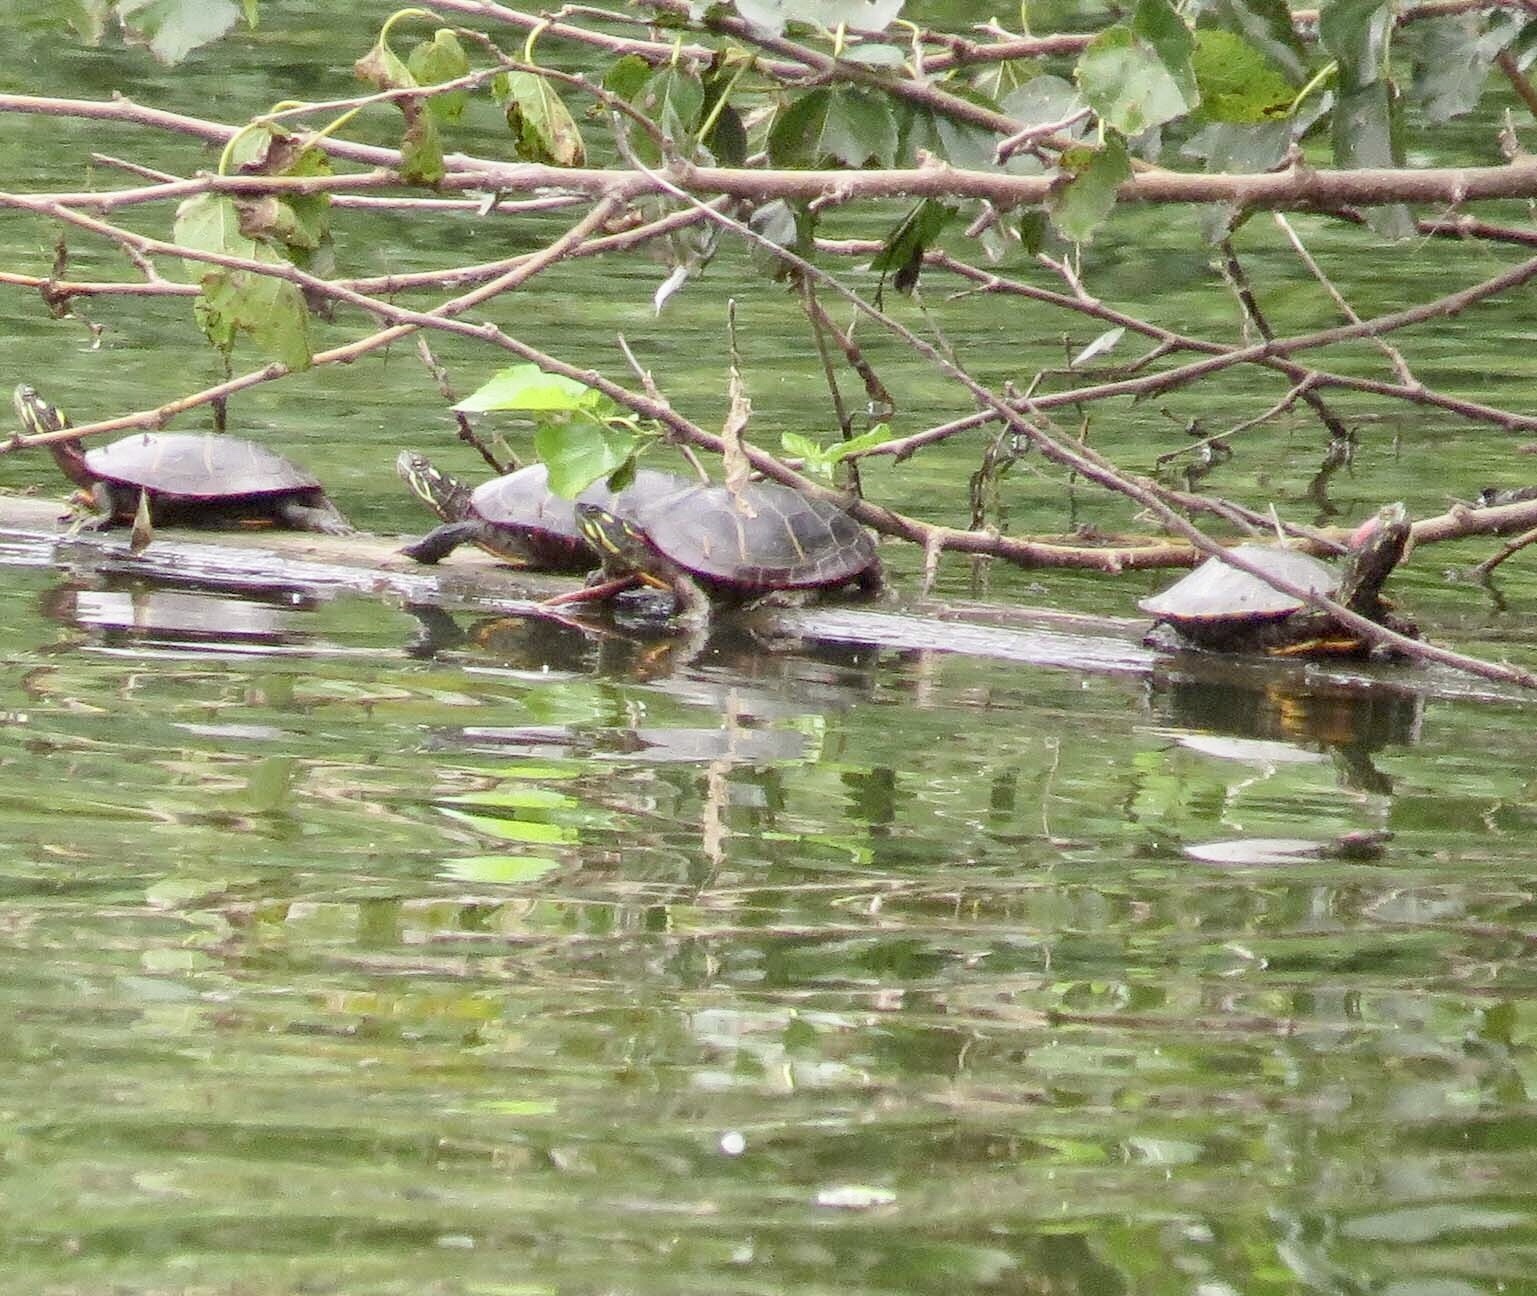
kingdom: Animalia
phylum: Chordata
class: Testudines
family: Emydidae
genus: Chrysemys
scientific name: Chrysemys picta
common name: Painted turtle
